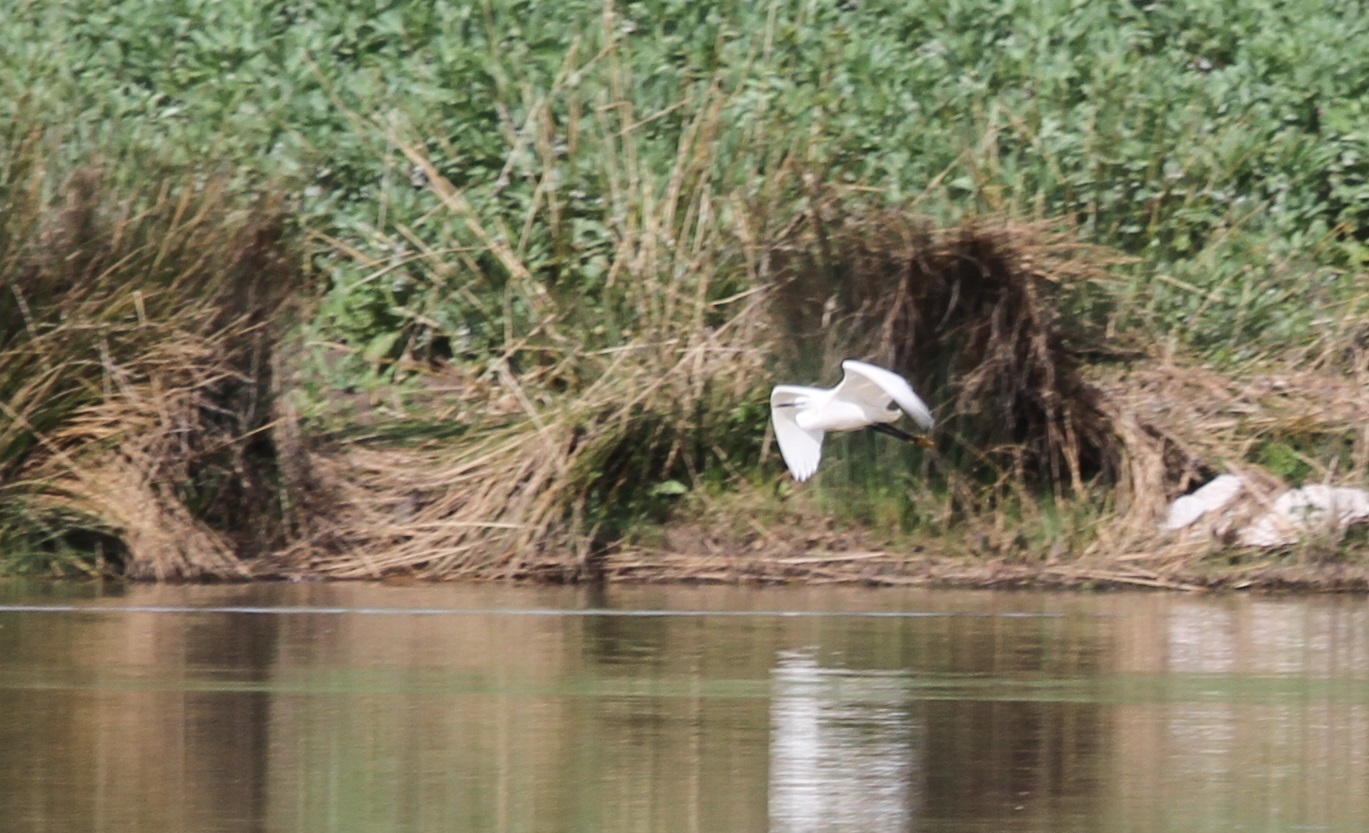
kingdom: Animalia
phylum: Chordata
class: Aves
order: Pelecaniformes
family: Ardeidae
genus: Egretta
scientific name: Egretta garzetta
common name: Little egret
